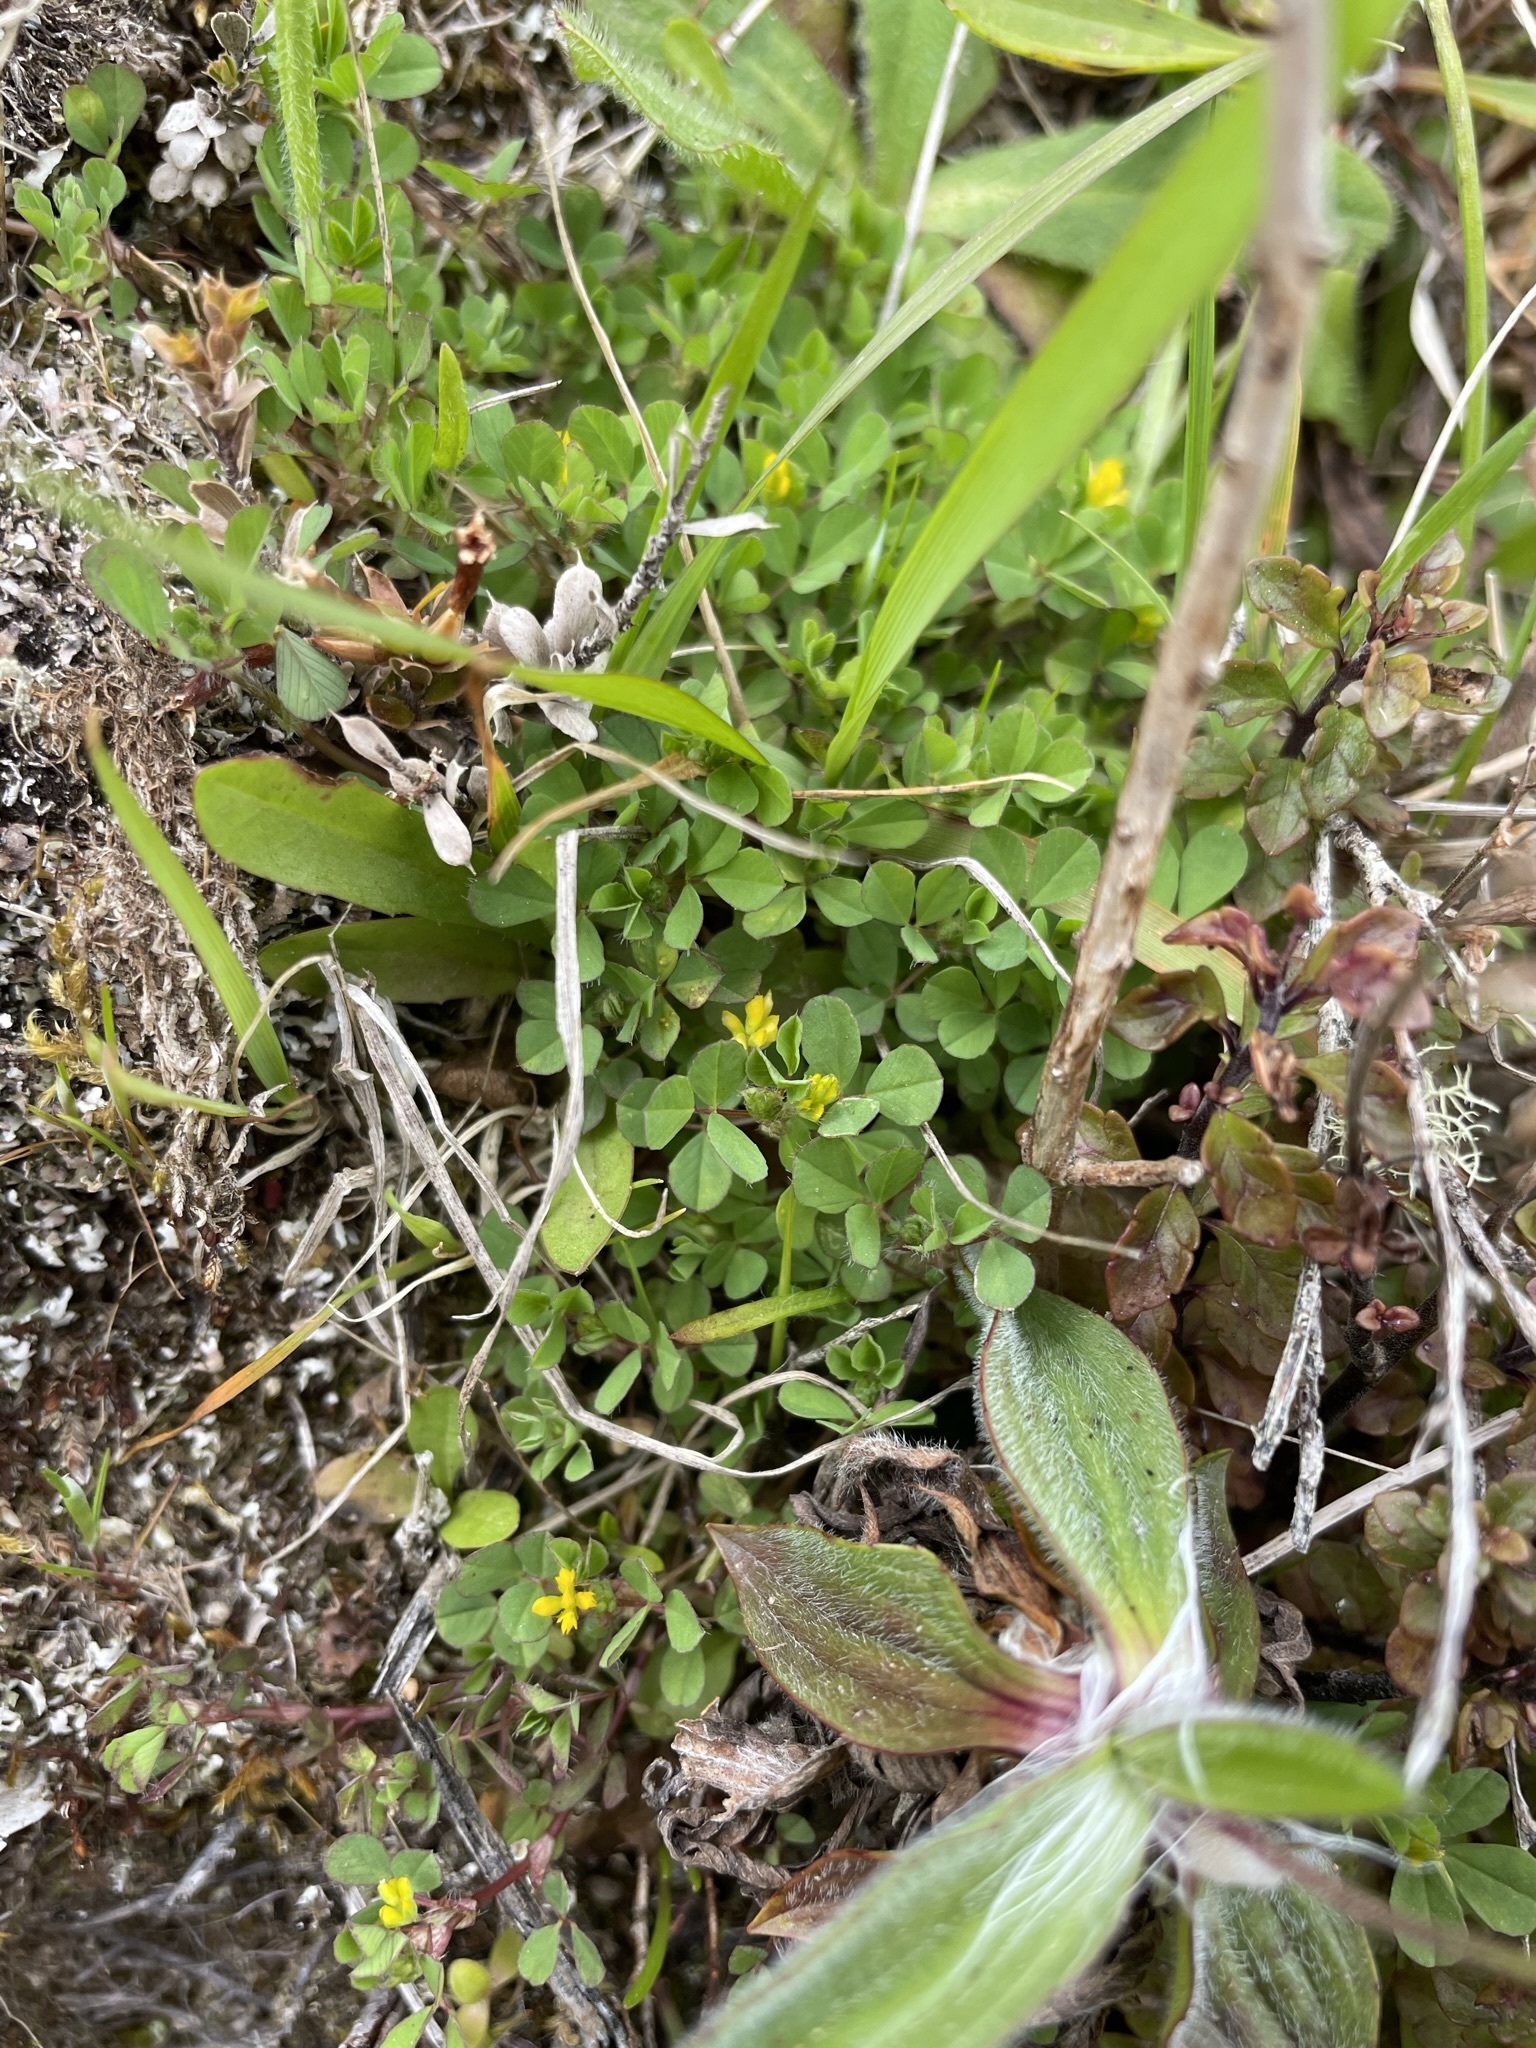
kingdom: Plantae
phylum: Tracheophyta
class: Magnoliopsida
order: Fabales
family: Fabaceae
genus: Trifolium
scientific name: Trifolium dubium
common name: Suckling clover
